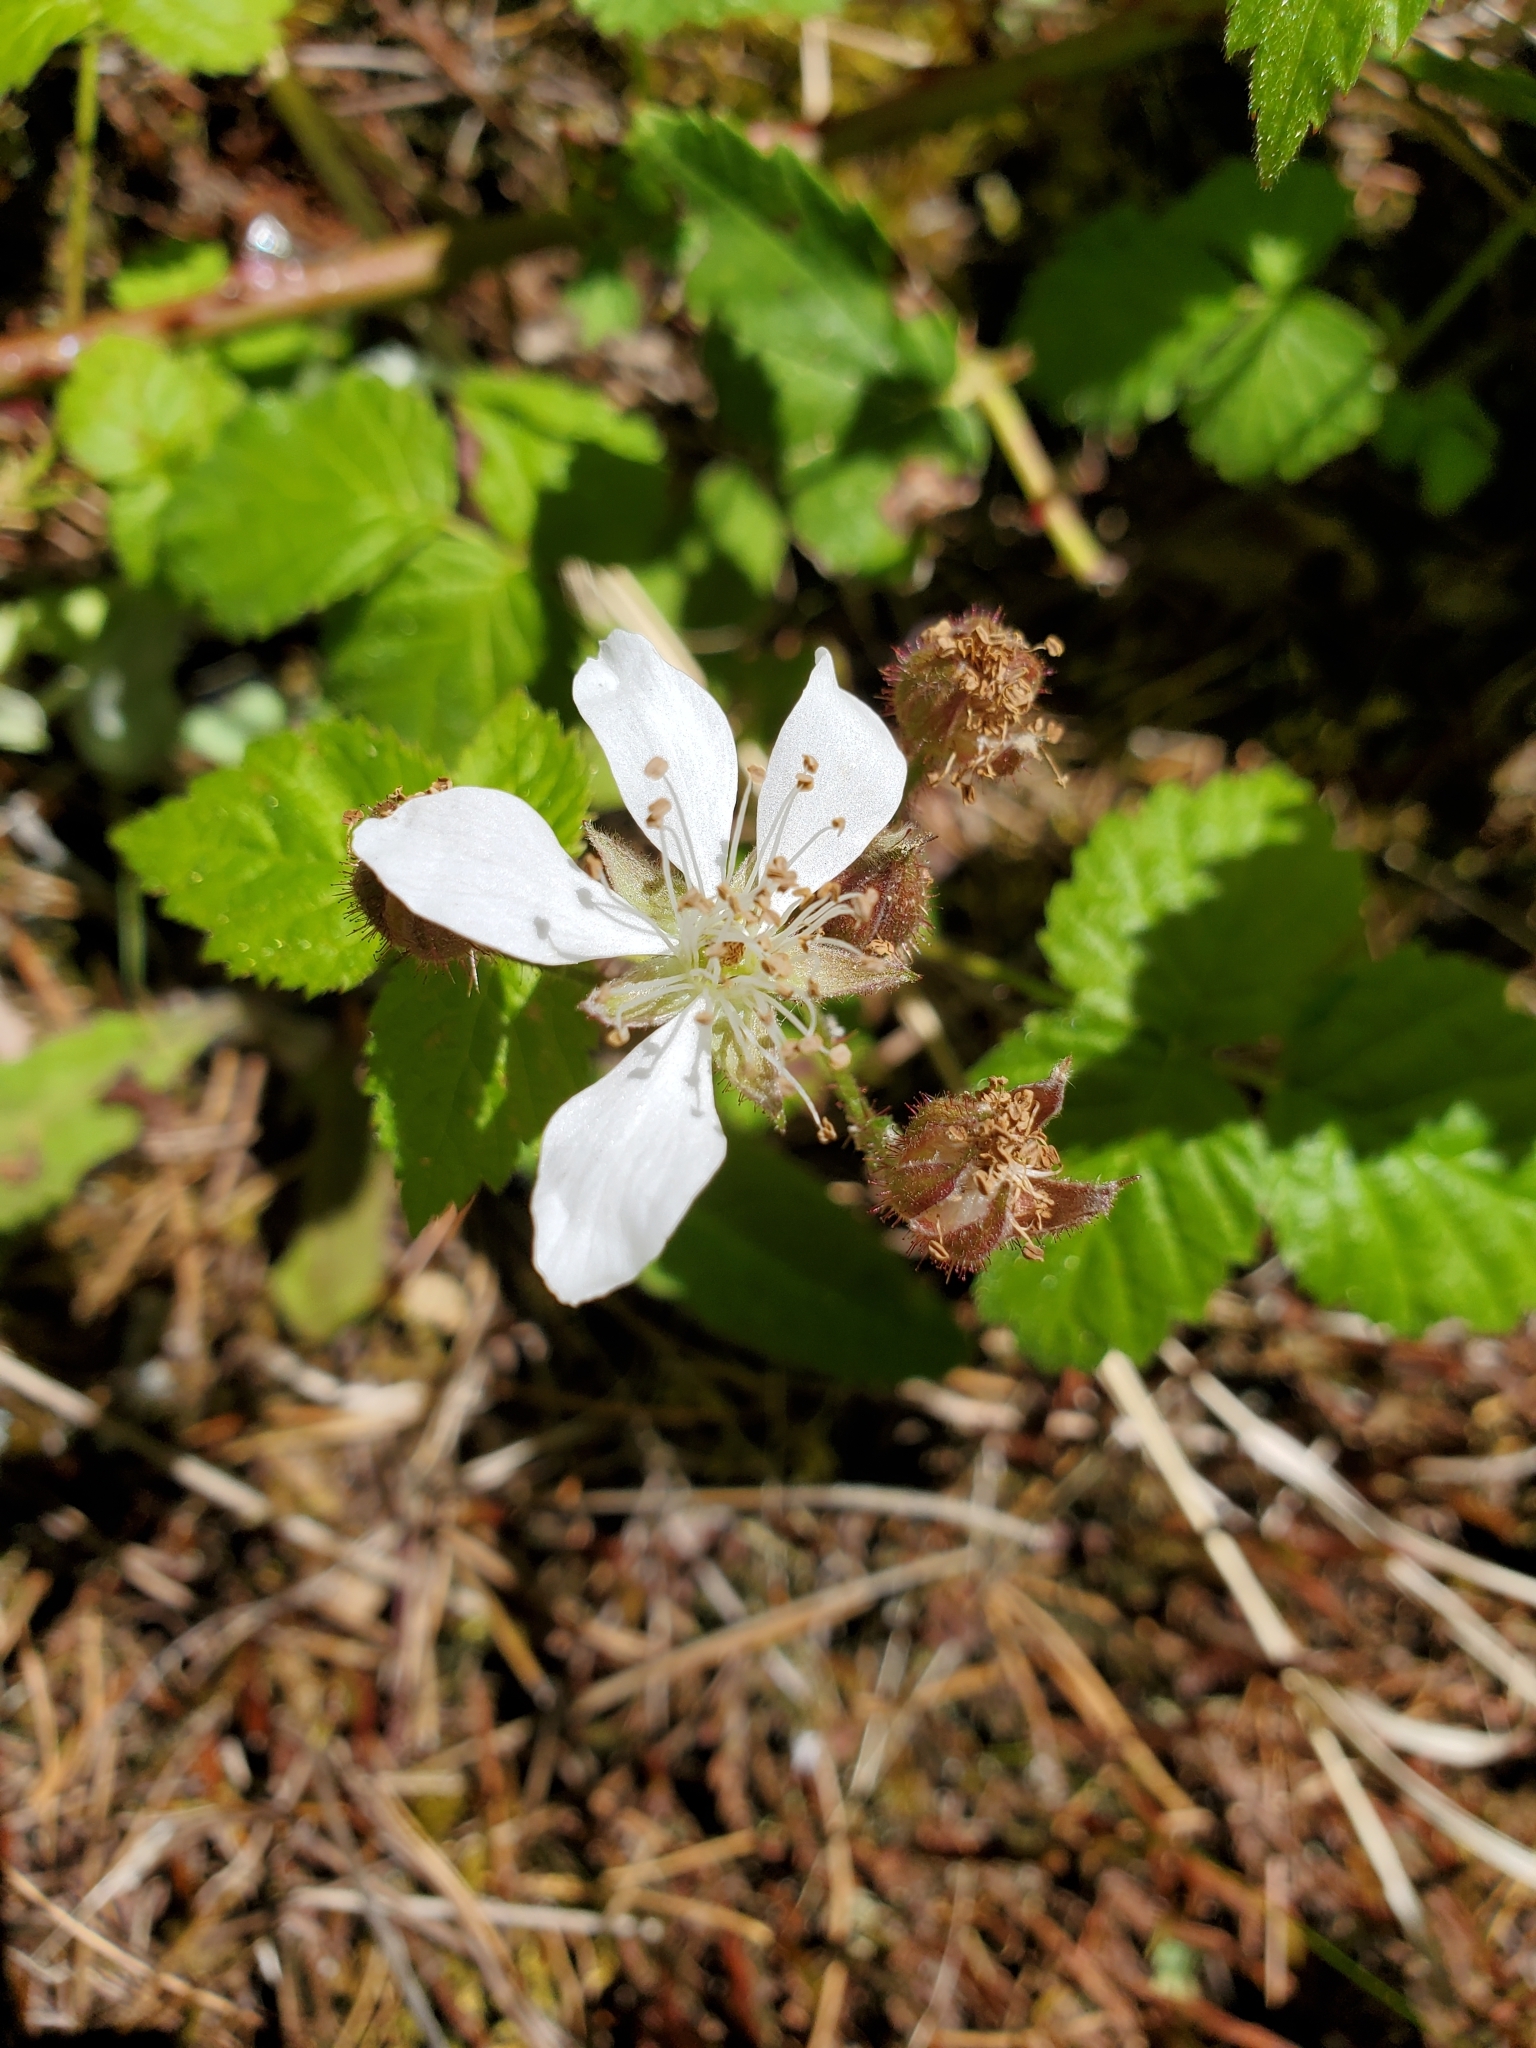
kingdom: Plantae
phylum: Tracheophyta
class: Magnoliopsida
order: Rosales
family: Rosaceae
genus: Rubus
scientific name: Rubus ursinus
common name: Pacific blackberry
